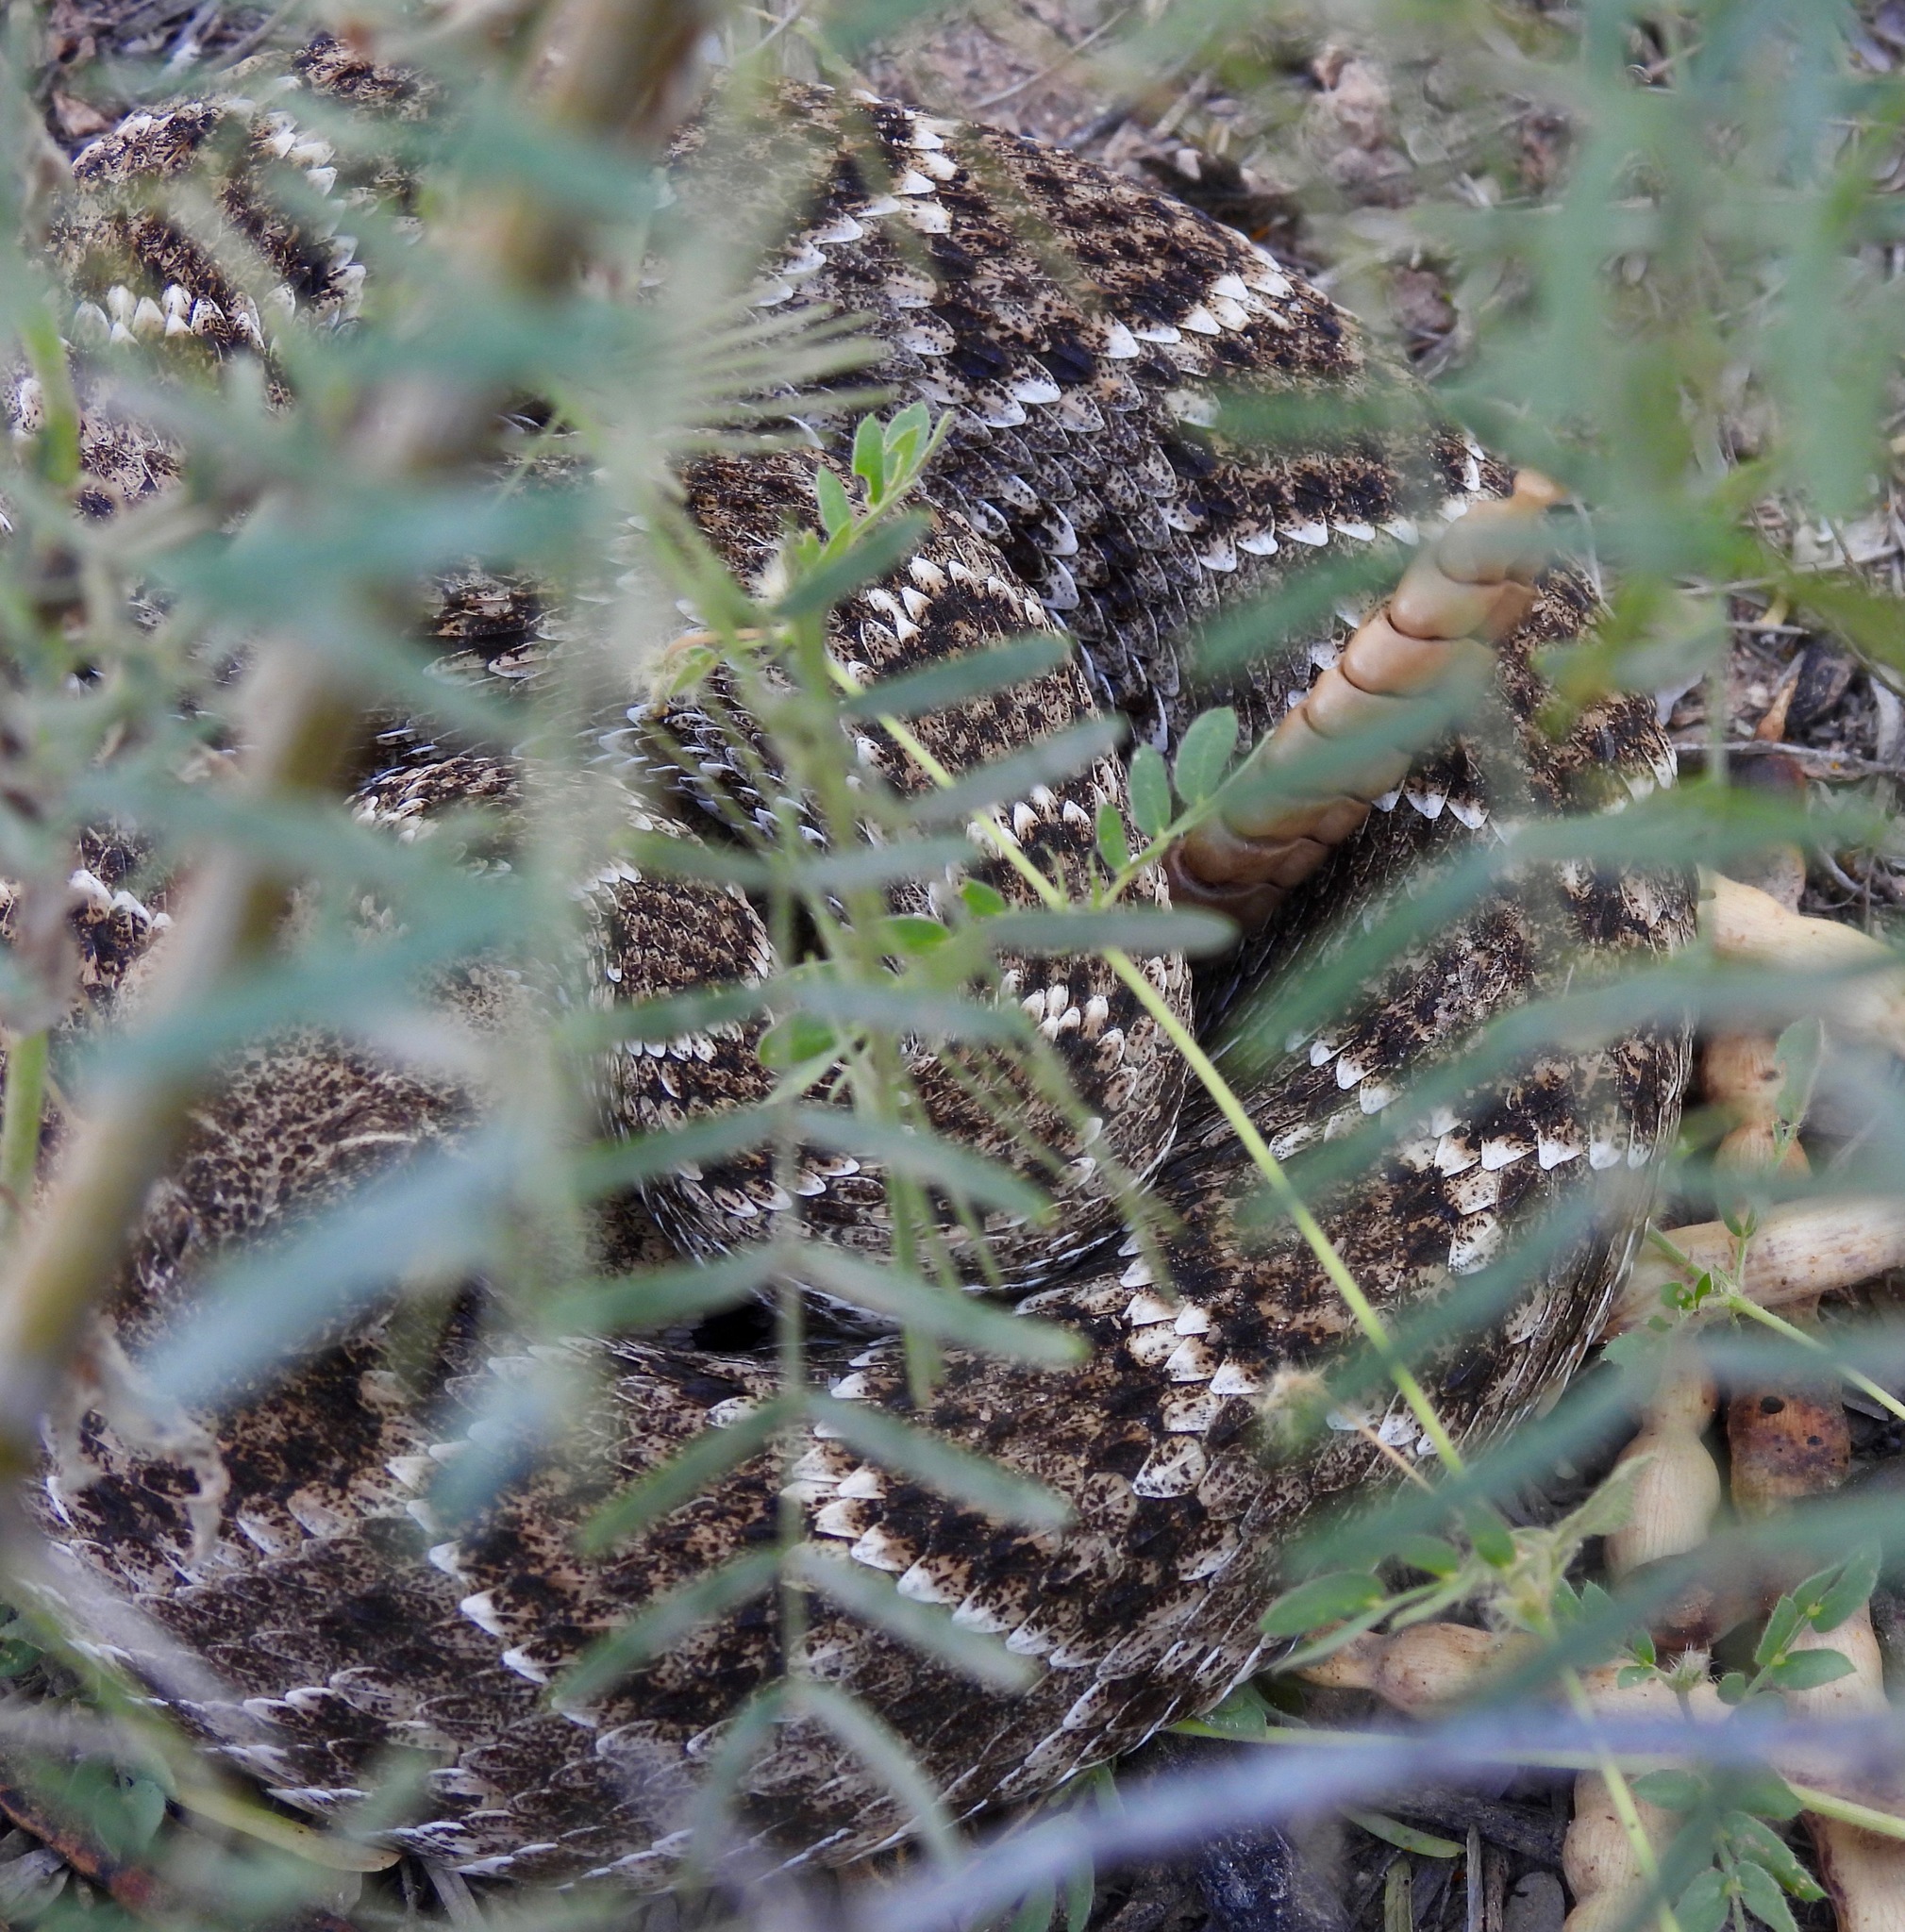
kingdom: Animalia
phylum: Chordata
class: Squamata
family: Viperidae
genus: Crotalus
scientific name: Crotalus atrox
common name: Western diamond-backed rattlesnake
